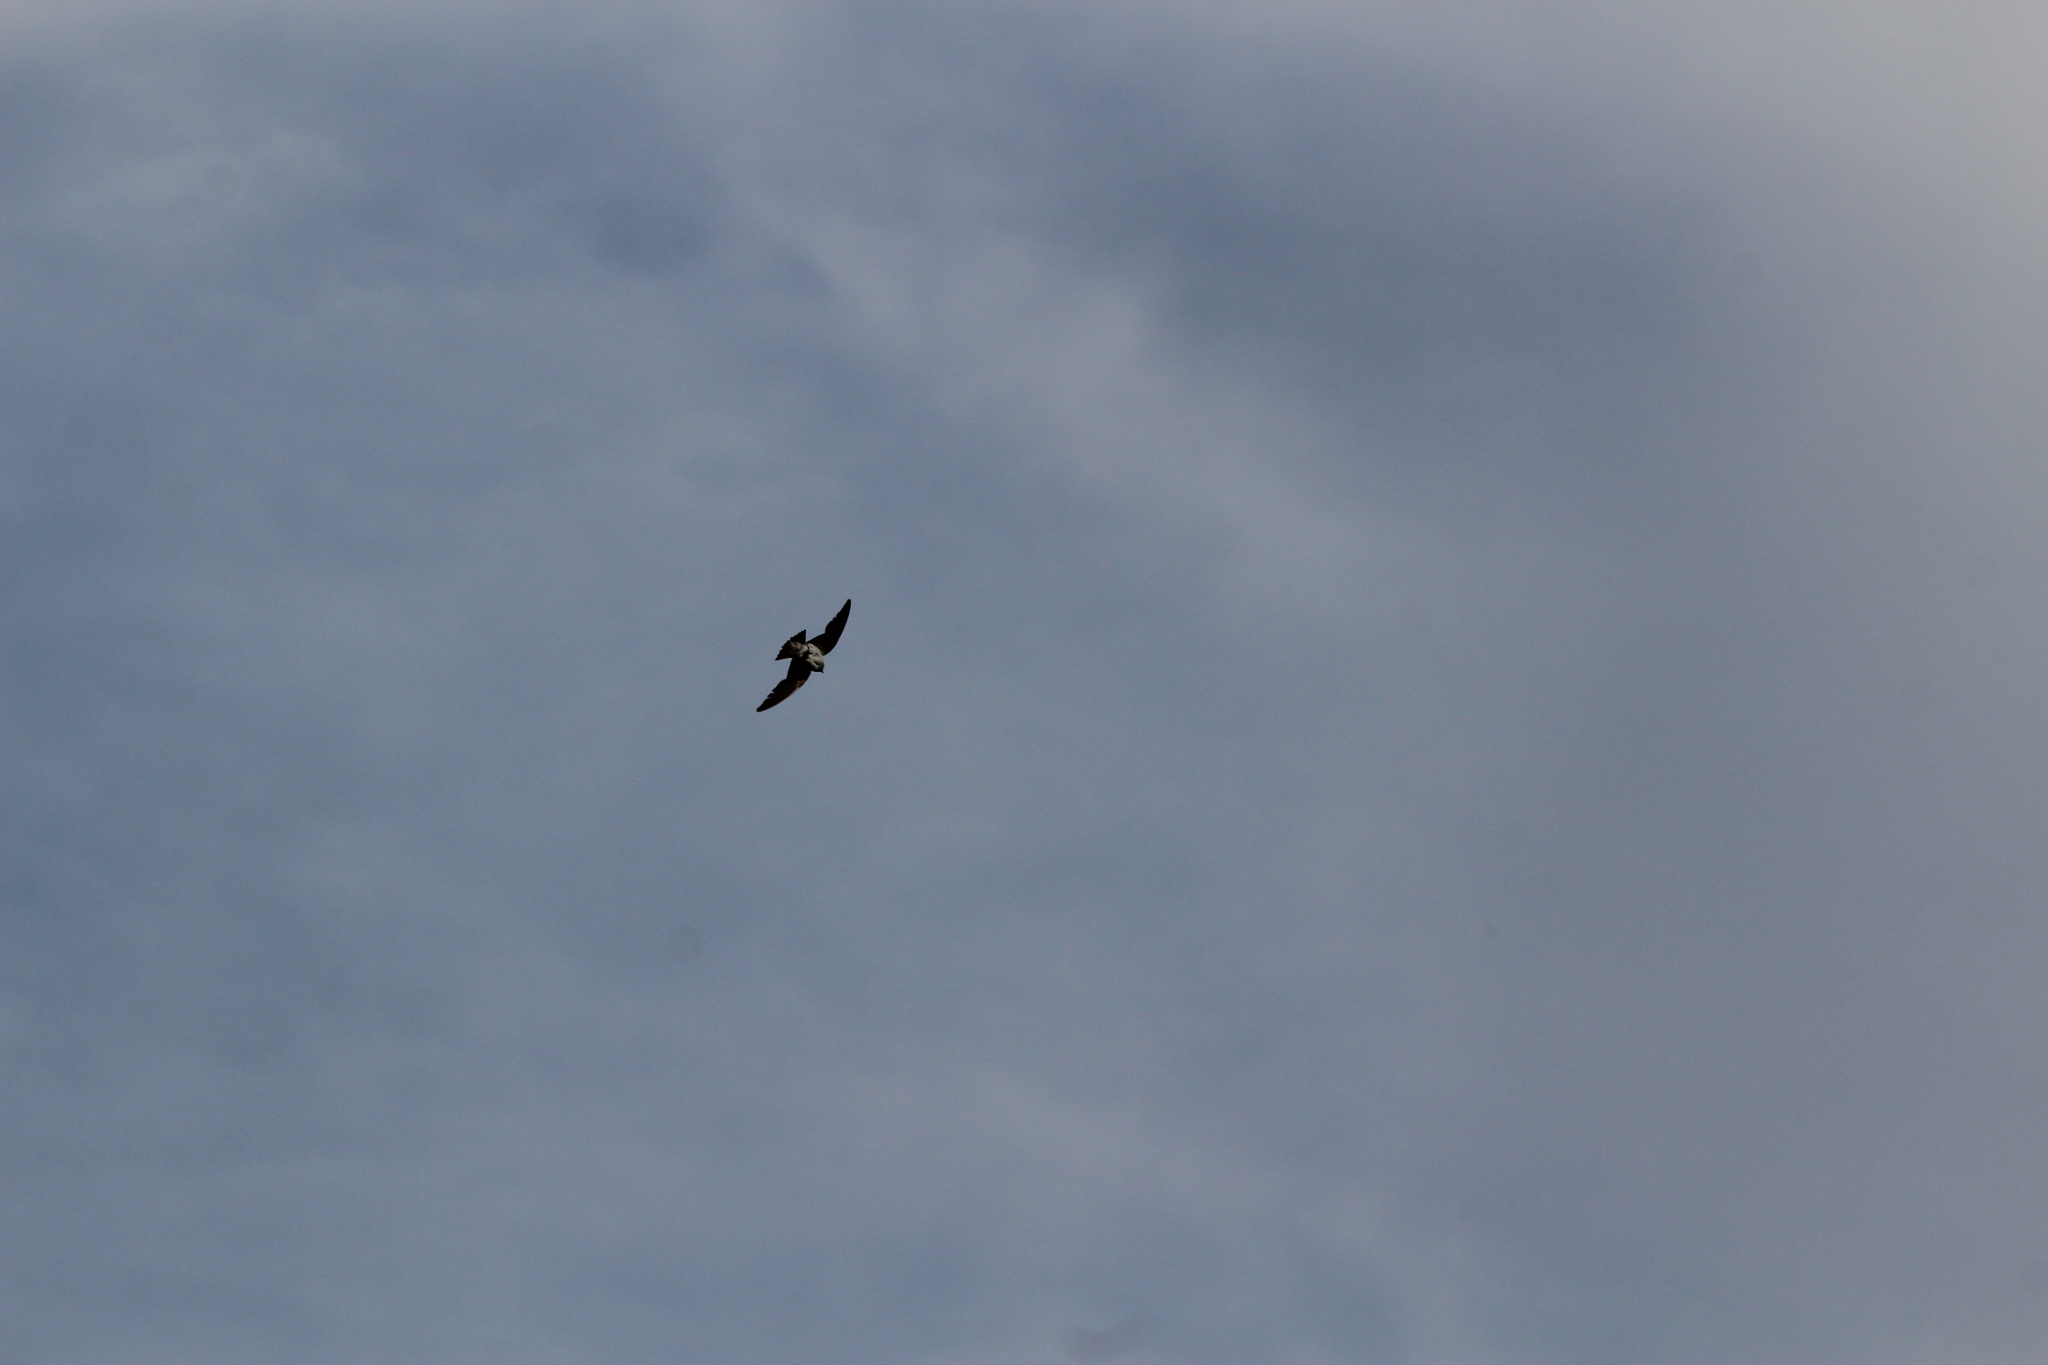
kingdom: Animalia
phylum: Chordata
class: Aves
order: Passeriformes
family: Hirundinidae
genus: Tachycineta
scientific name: Tachycineta thalassina
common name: Violet-green swallow
